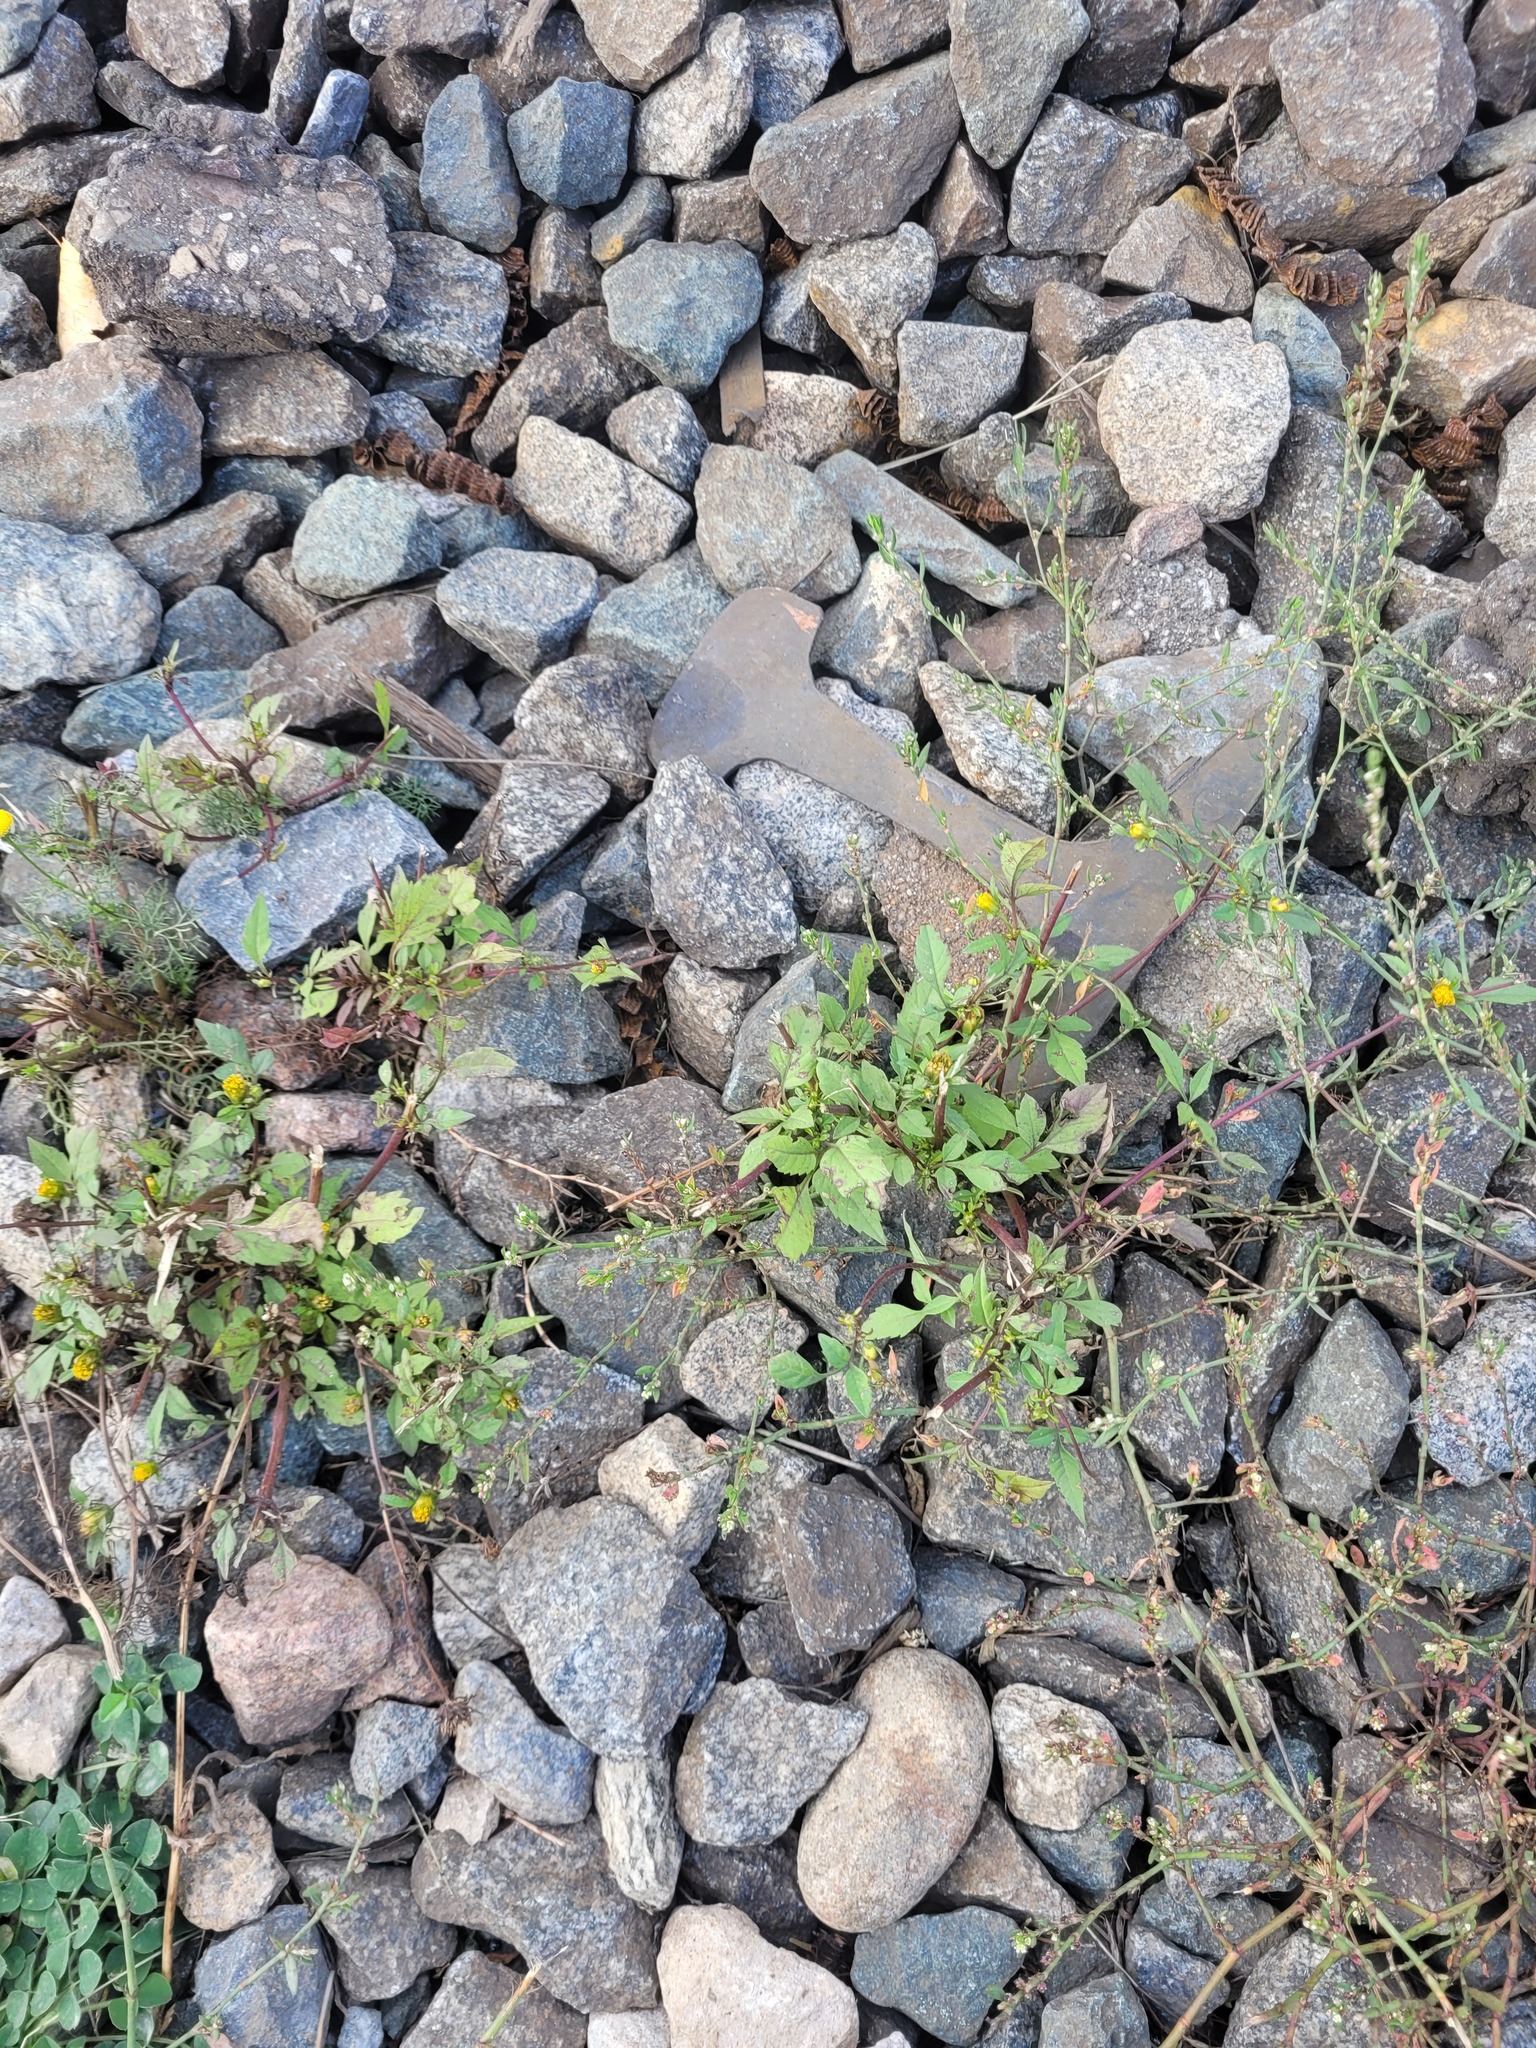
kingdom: Plantae
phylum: Tracheophyta
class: Magnoliopsida
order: Asterales
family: Asteraceae
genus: Bidens
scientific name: Bidens frondosa
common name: Beggarticks
